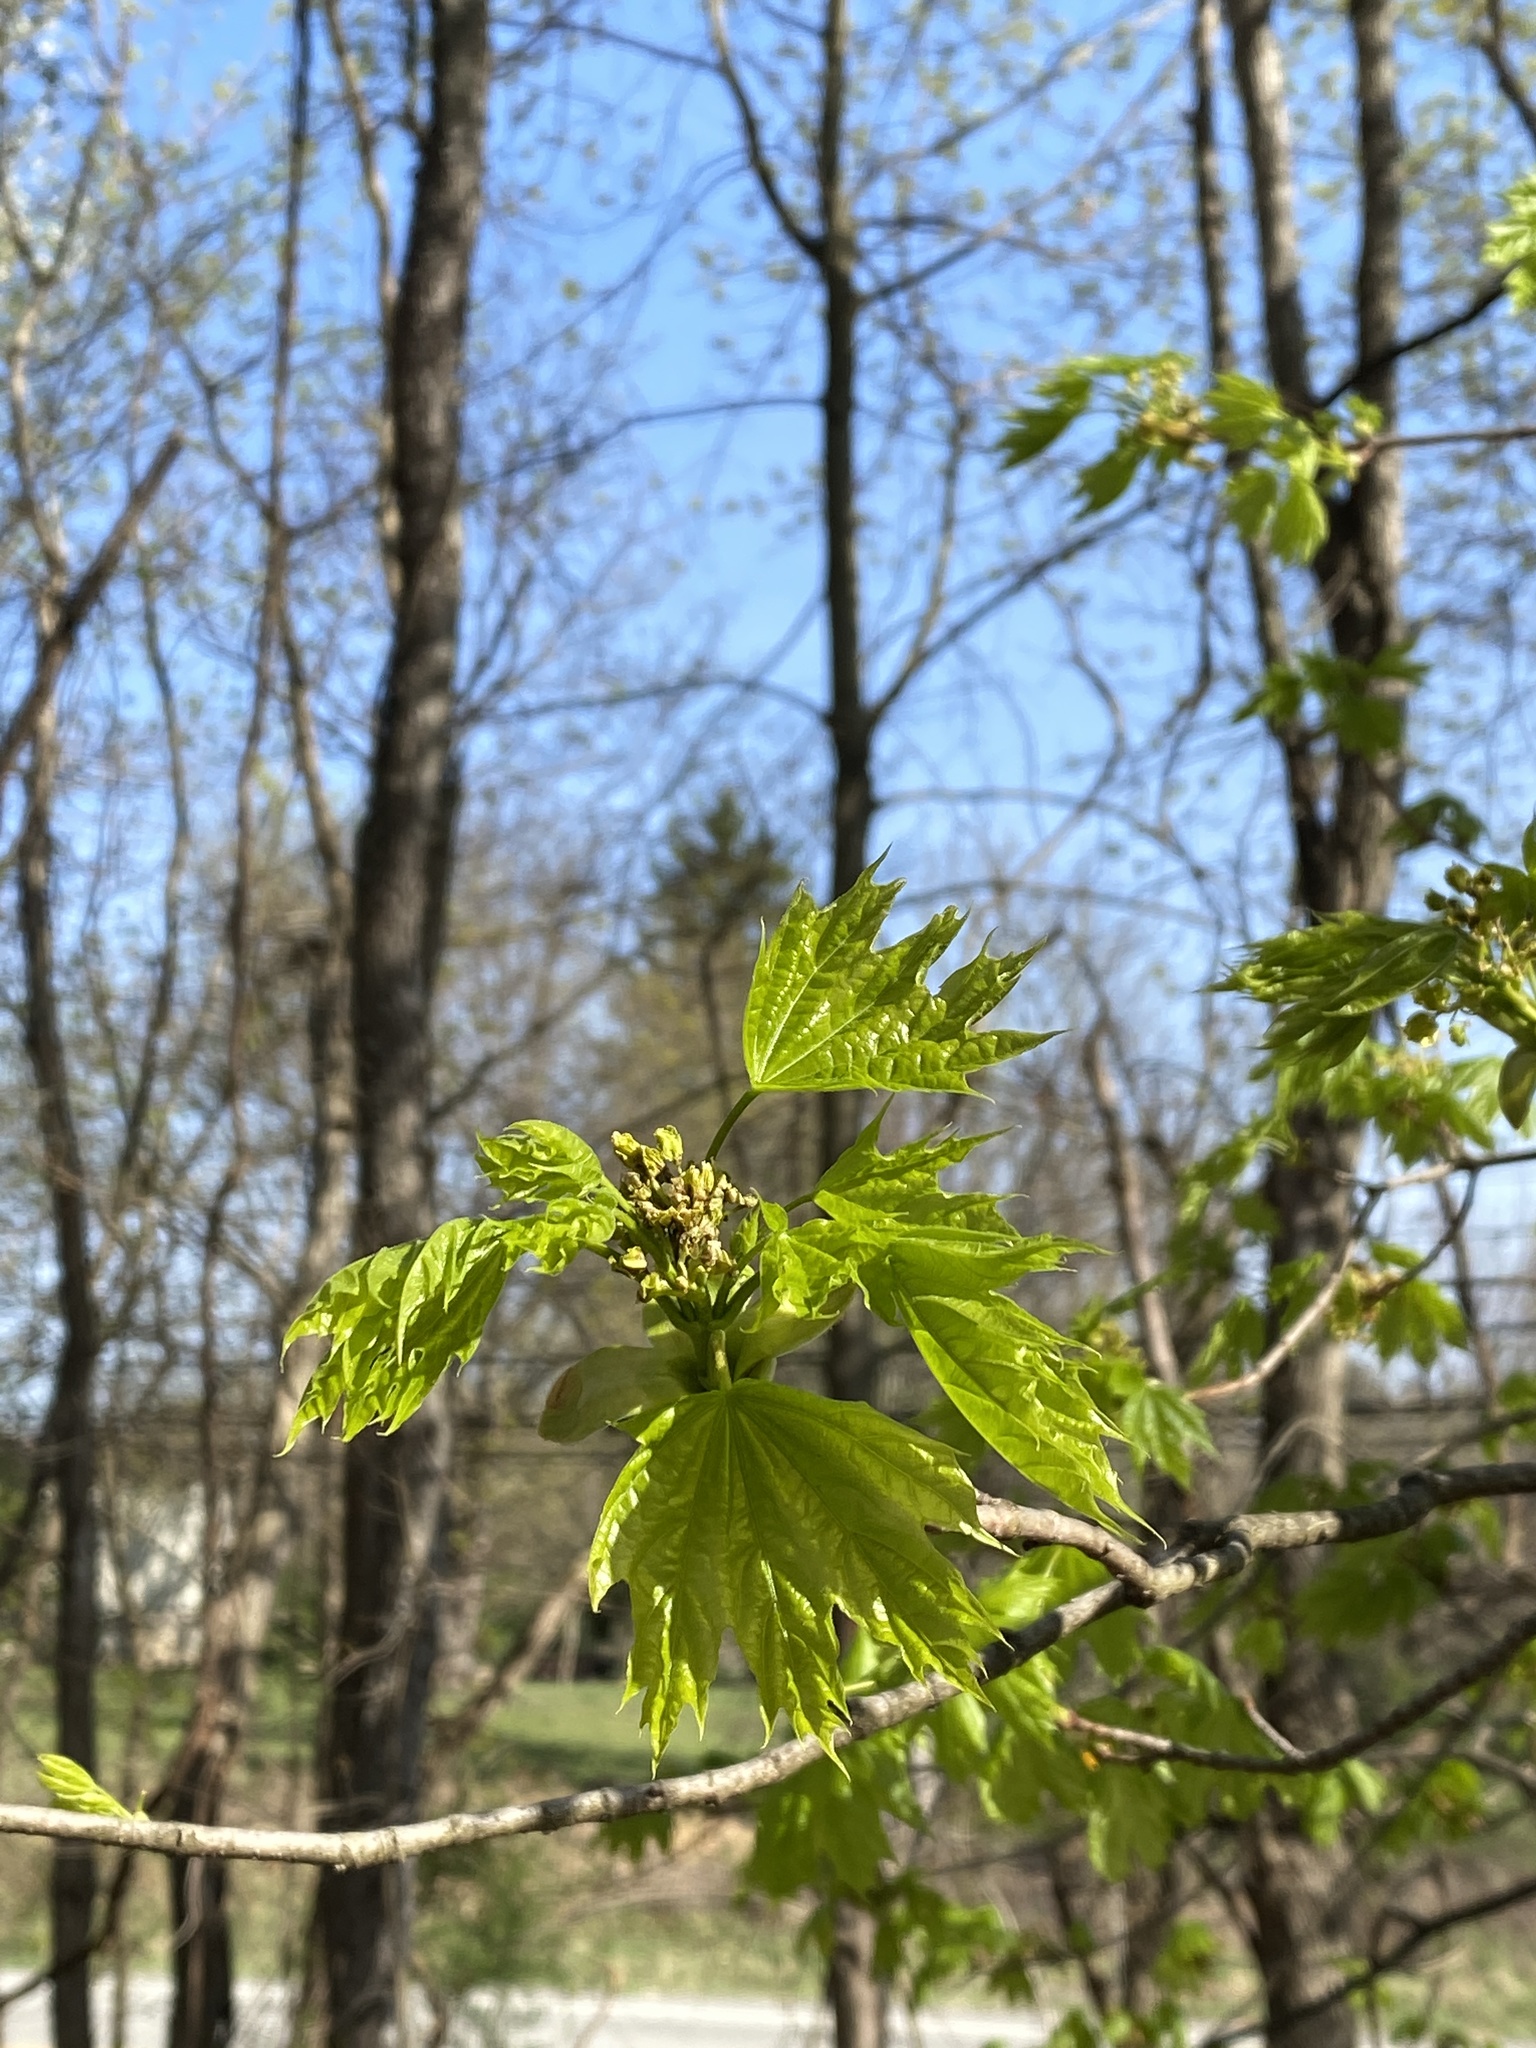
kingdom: Plantae
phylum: Tracheophyta
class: Magnoliopsida
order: Sapindales
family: Sapindaceae
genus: Acer
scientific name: Acer platanoides
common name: Norway maple
